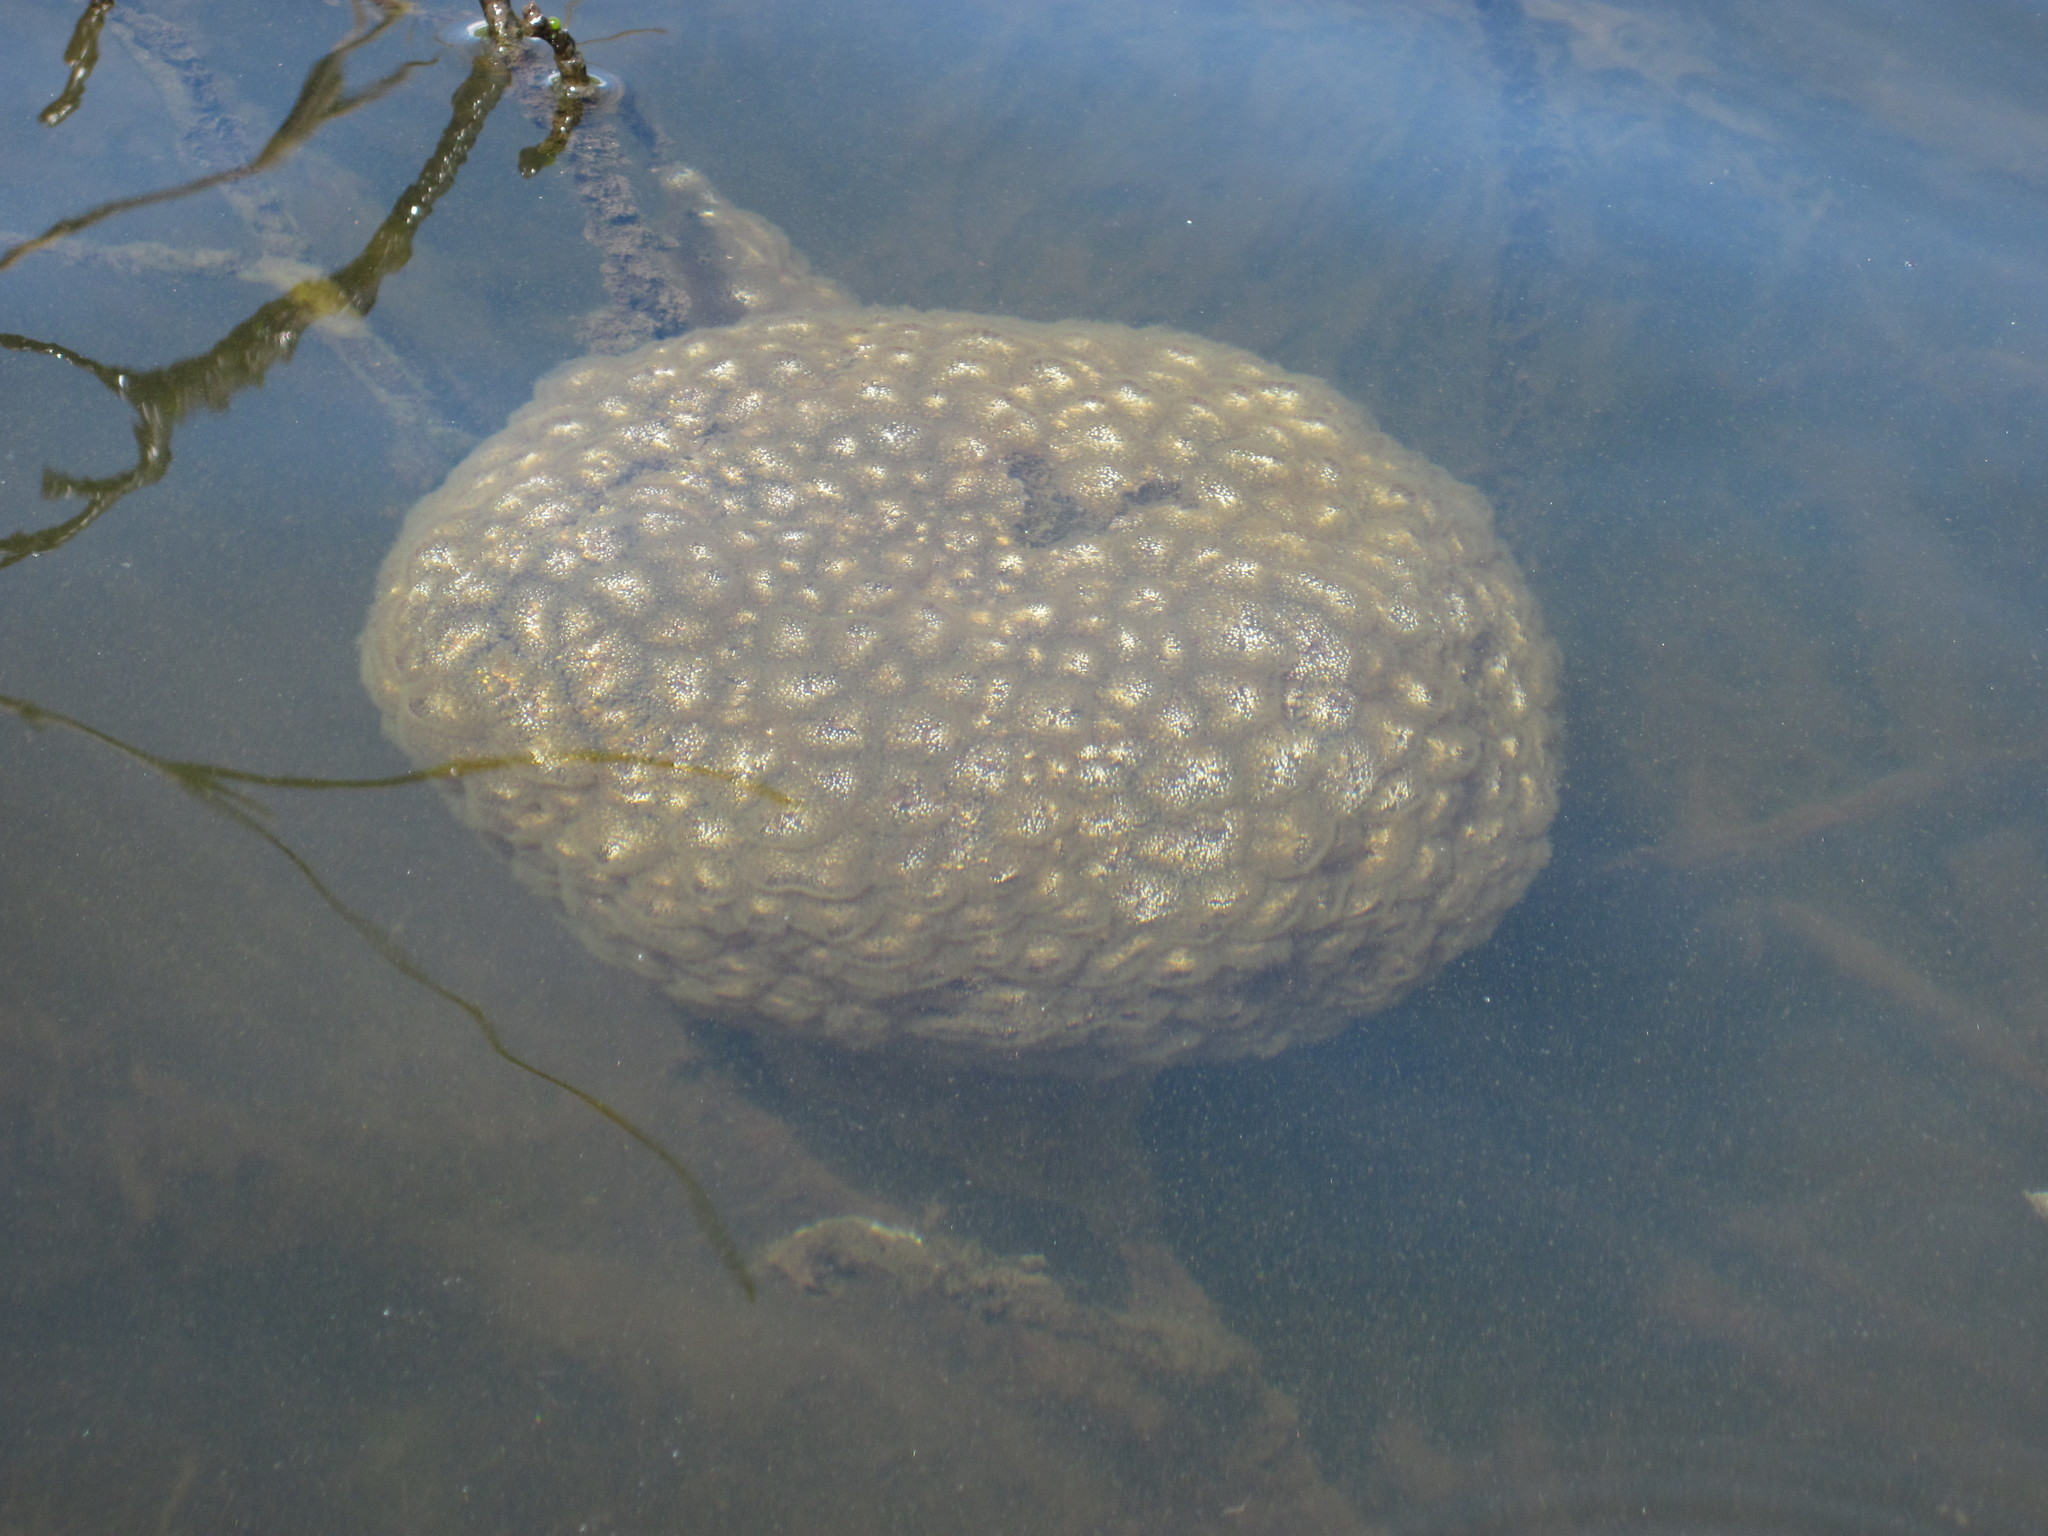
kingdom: Animalia
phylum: Bryozoa
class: Phylactolaemata
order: Plumatellida
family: Pectinatellidae
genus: Pectinatella
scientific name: Pectinatella magnifica
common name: Magnificent bryozoan
